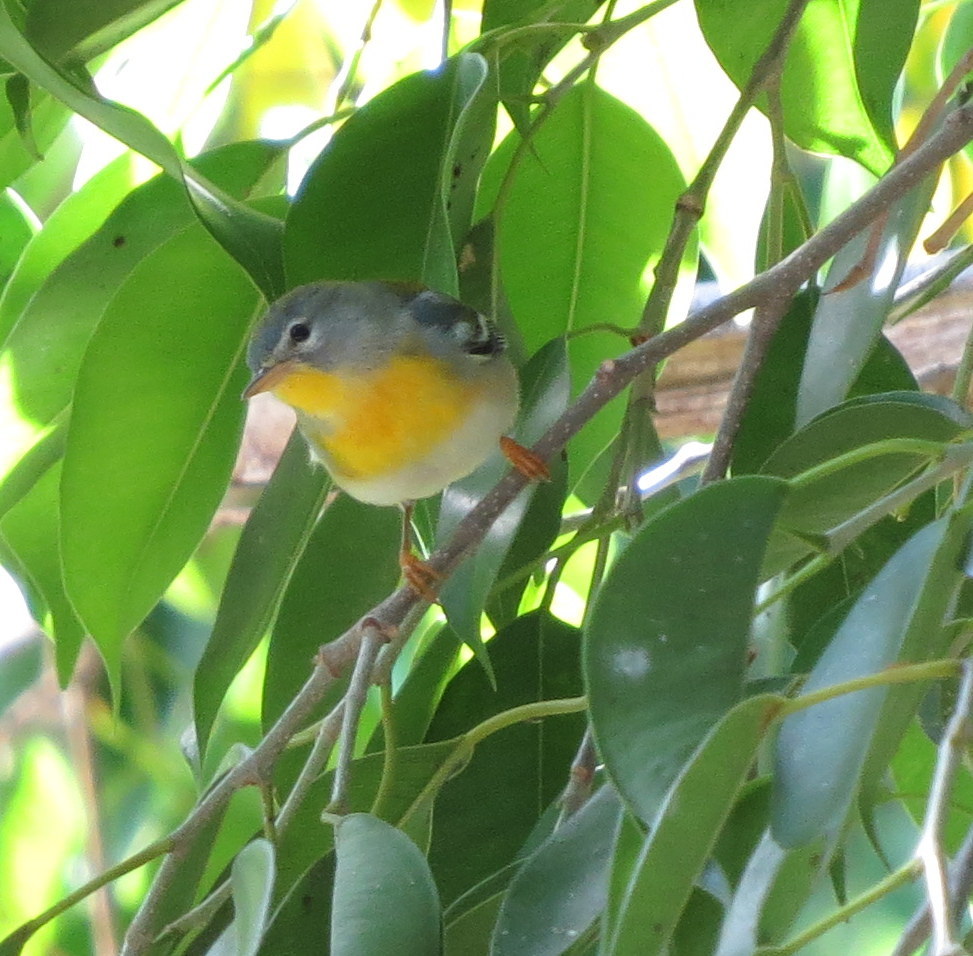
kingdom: Animalia
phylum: Chordata
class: Aves
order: Passeriformes
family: Parulidae
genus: Setophaga
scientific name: Setophaga americana
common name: Northern parula
